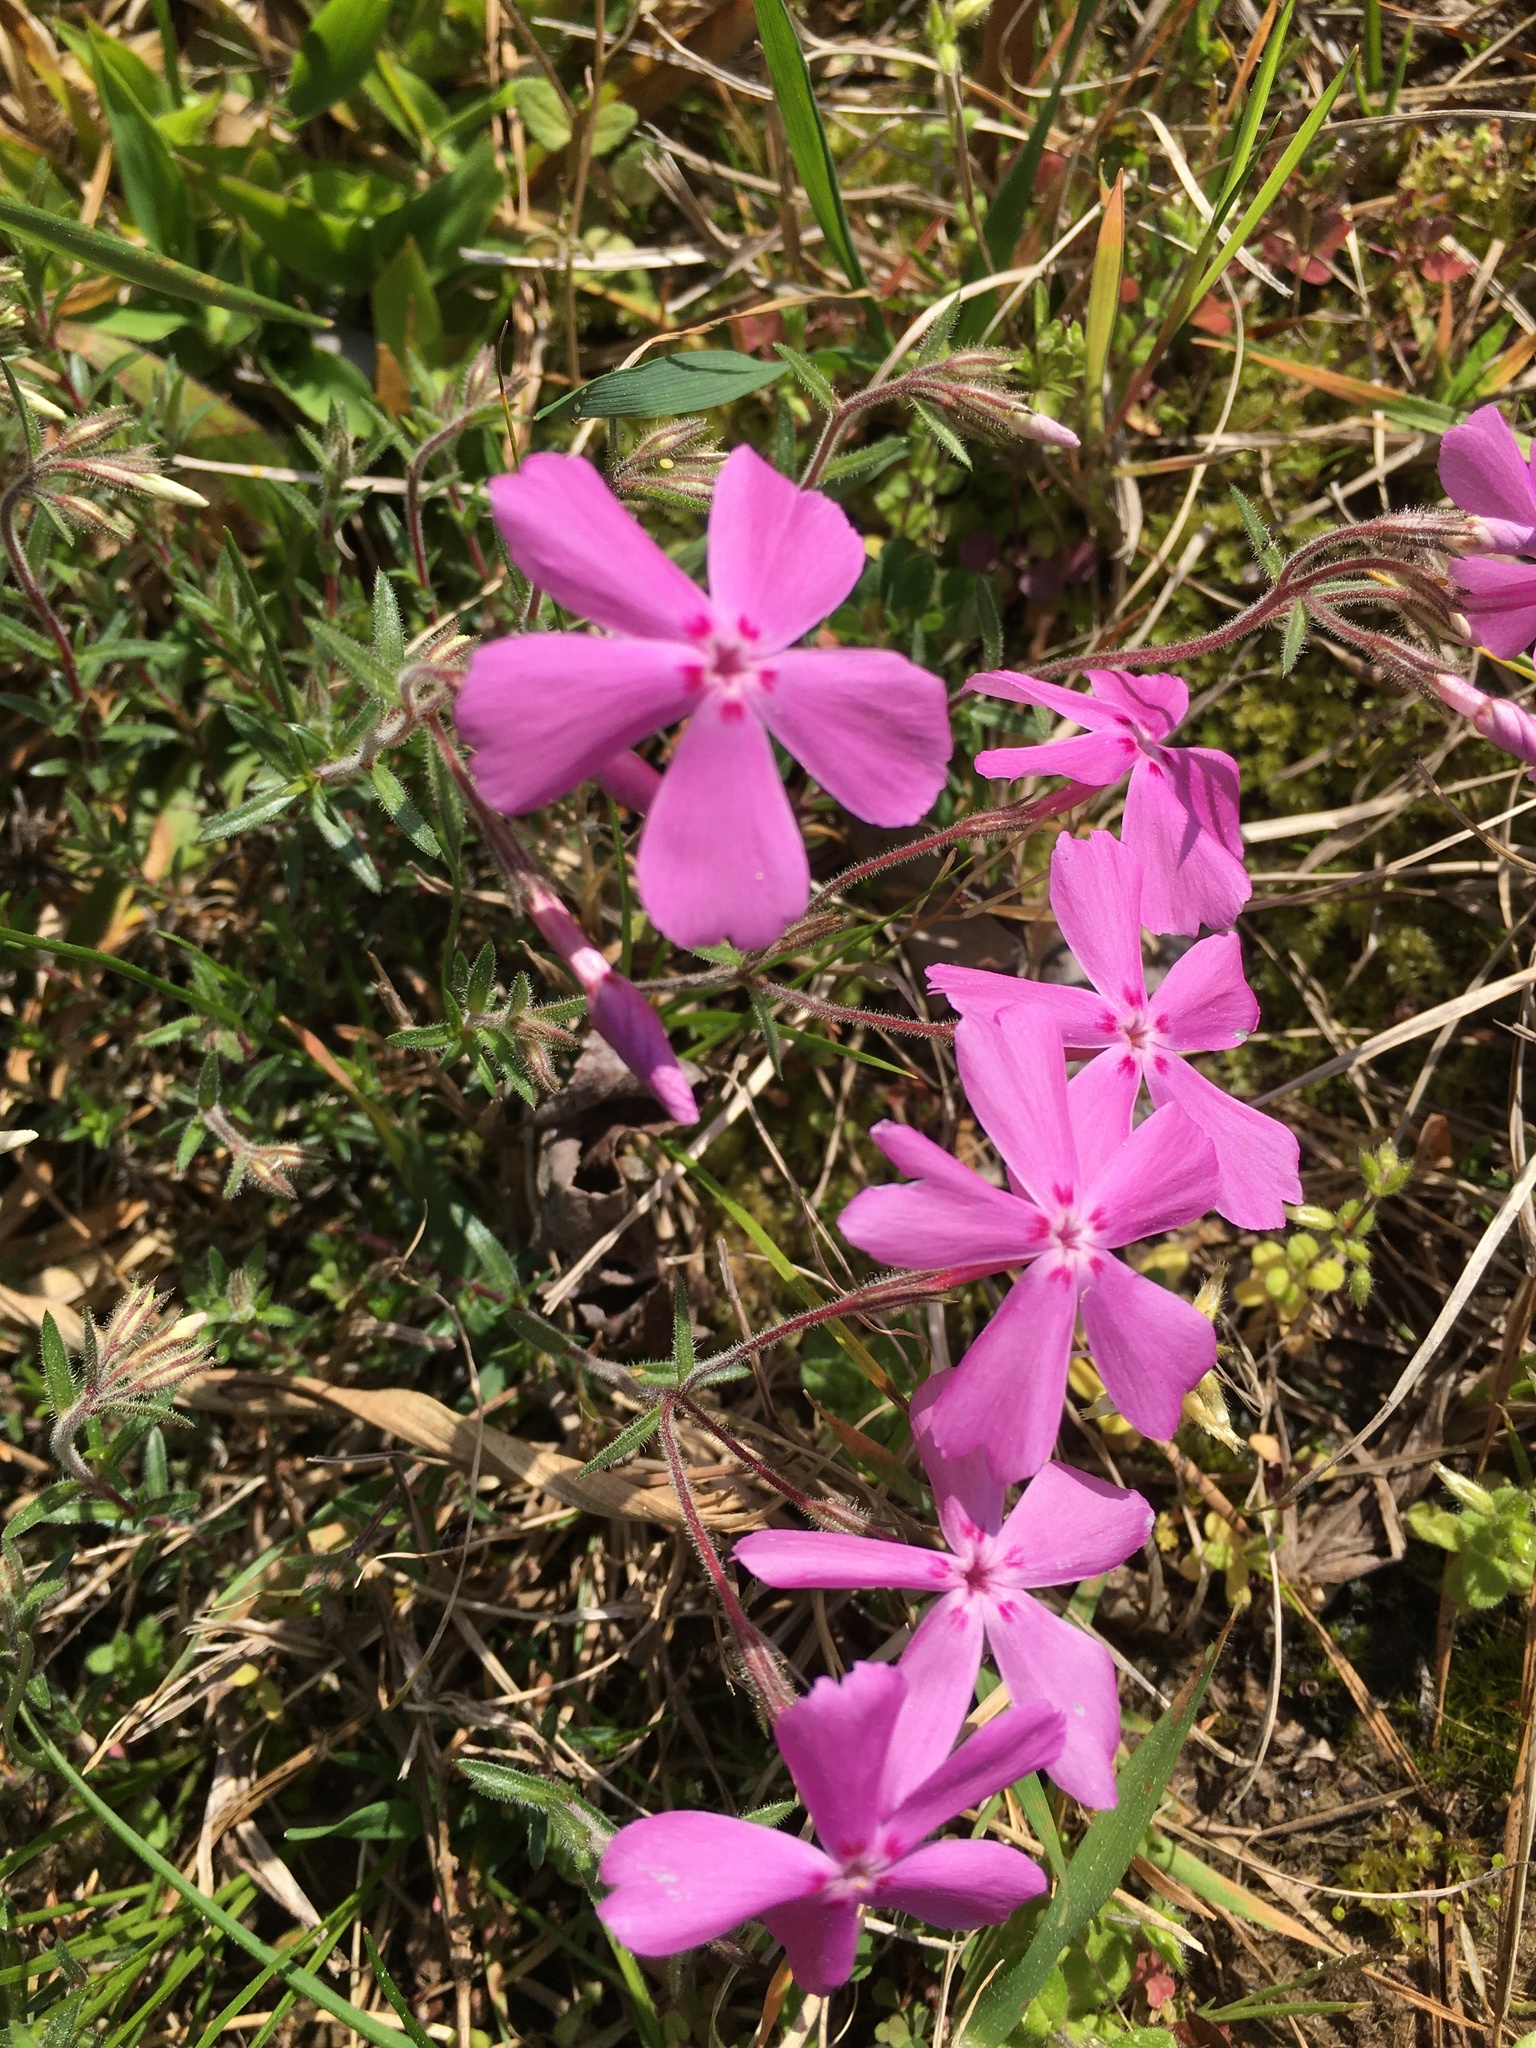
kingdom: Plantae
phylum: Tracheophyta
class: Magnoliopsida
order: Ericales
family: Polemoniaceae
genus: Phlox
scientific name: Phlox nivalis
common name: Trailing phlox
